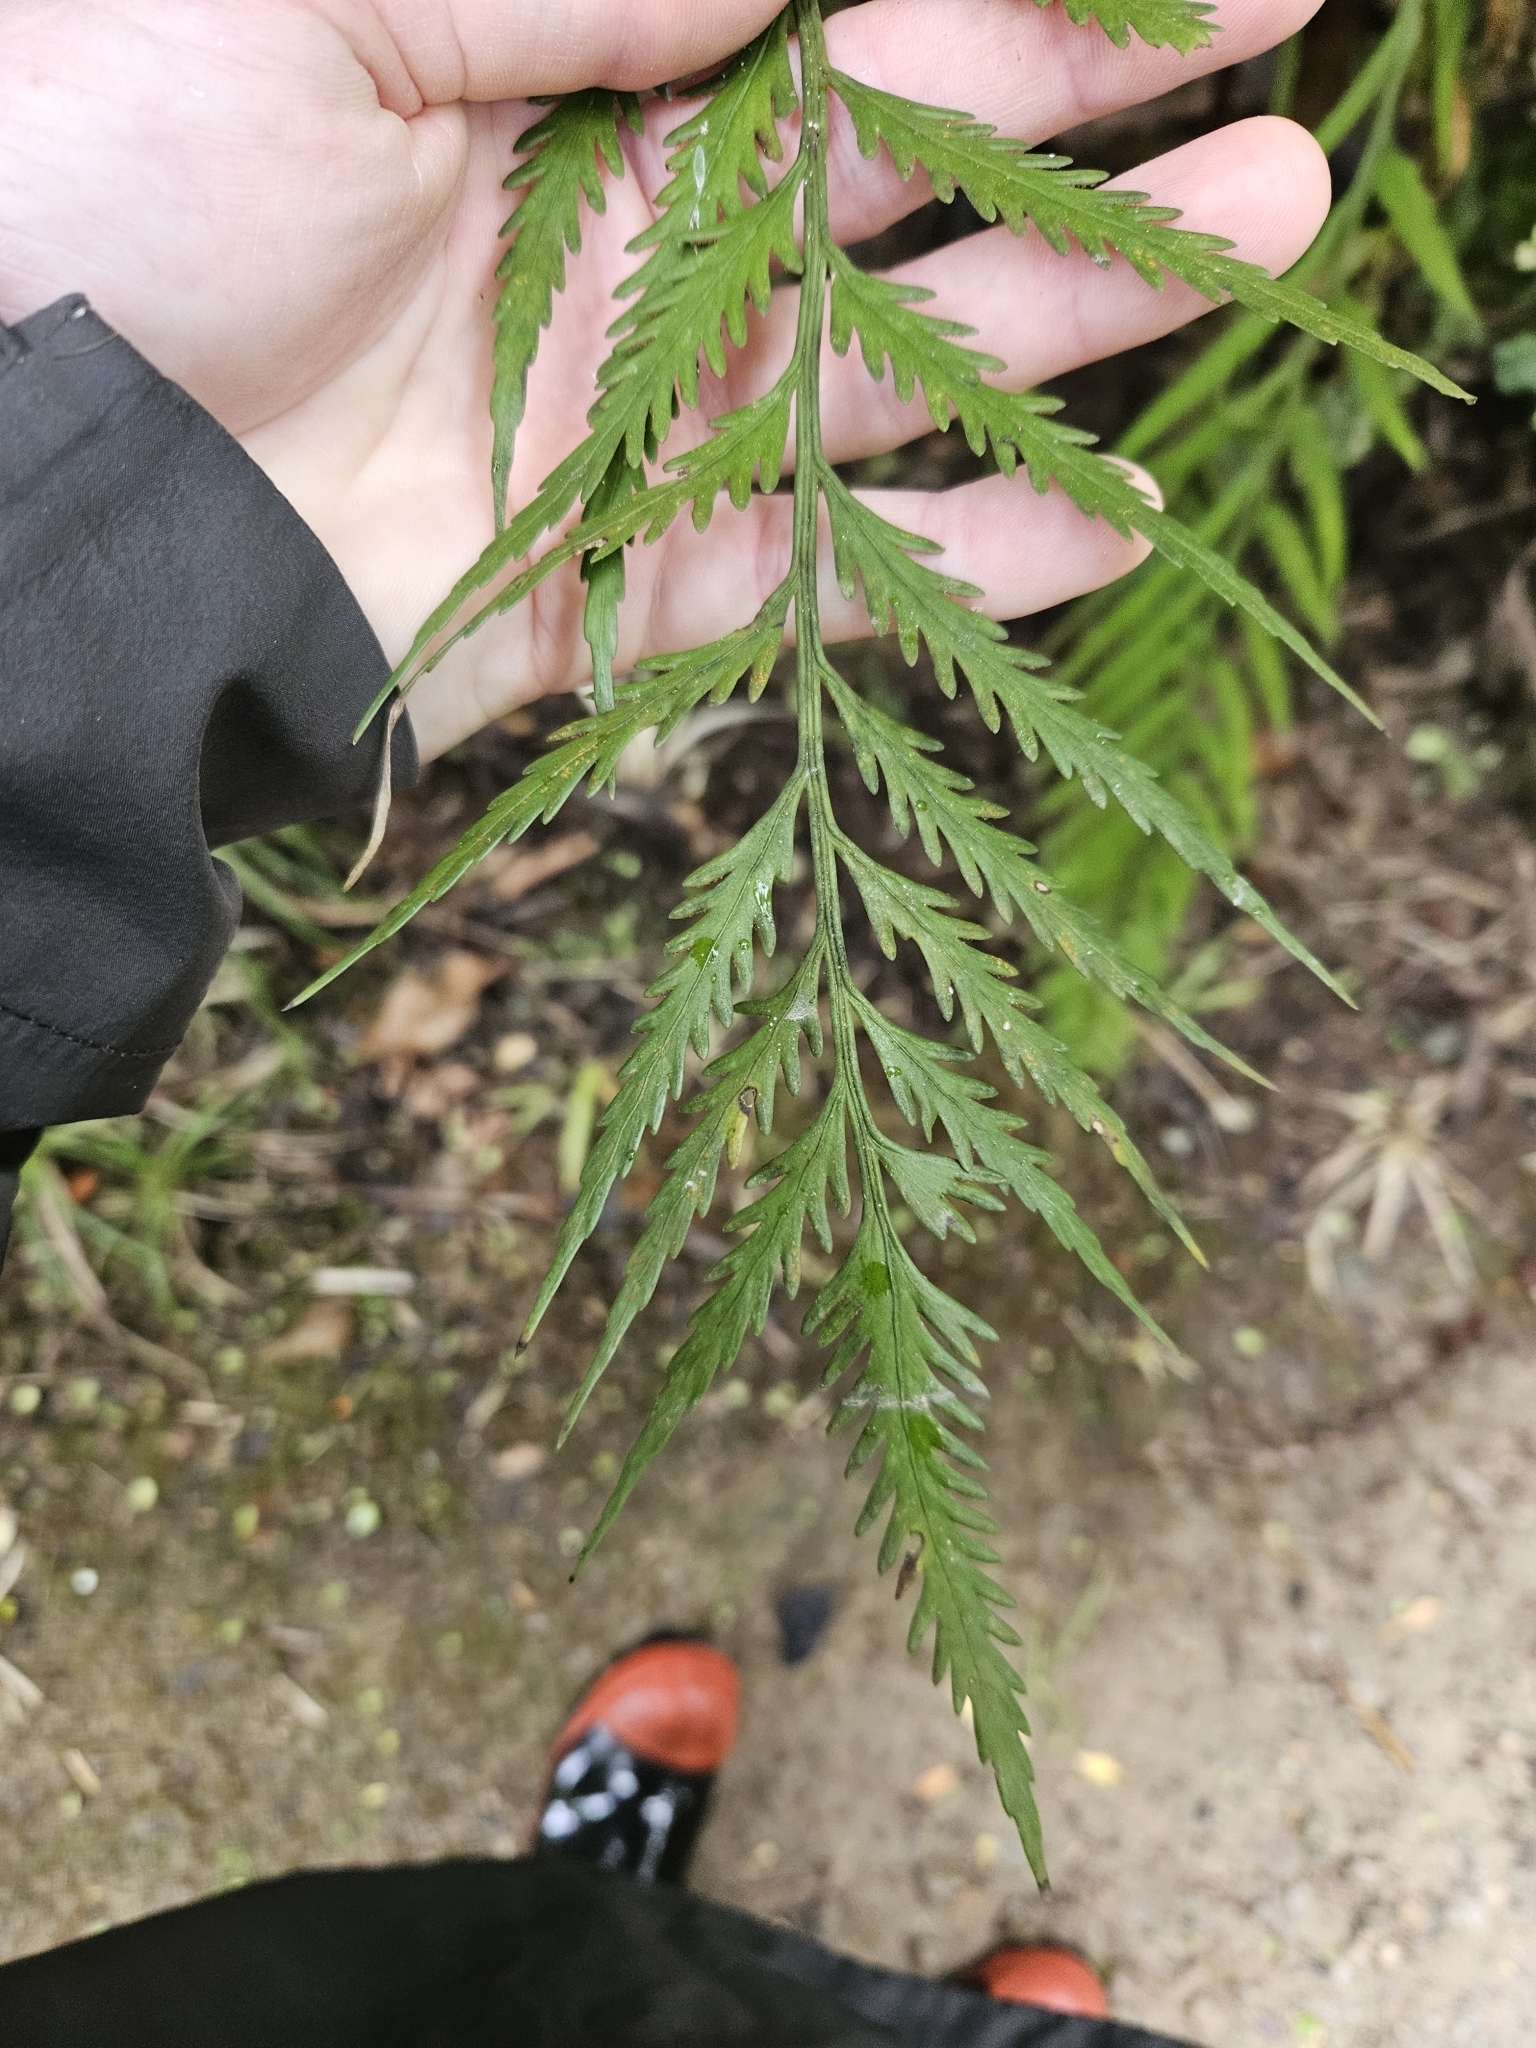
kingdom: Plantae
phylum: Tracheophyta
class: Polypodiopsida
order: Polypodiales
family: Aspleniaceae
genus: Asplenium
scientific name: Asplenium flaccidum
